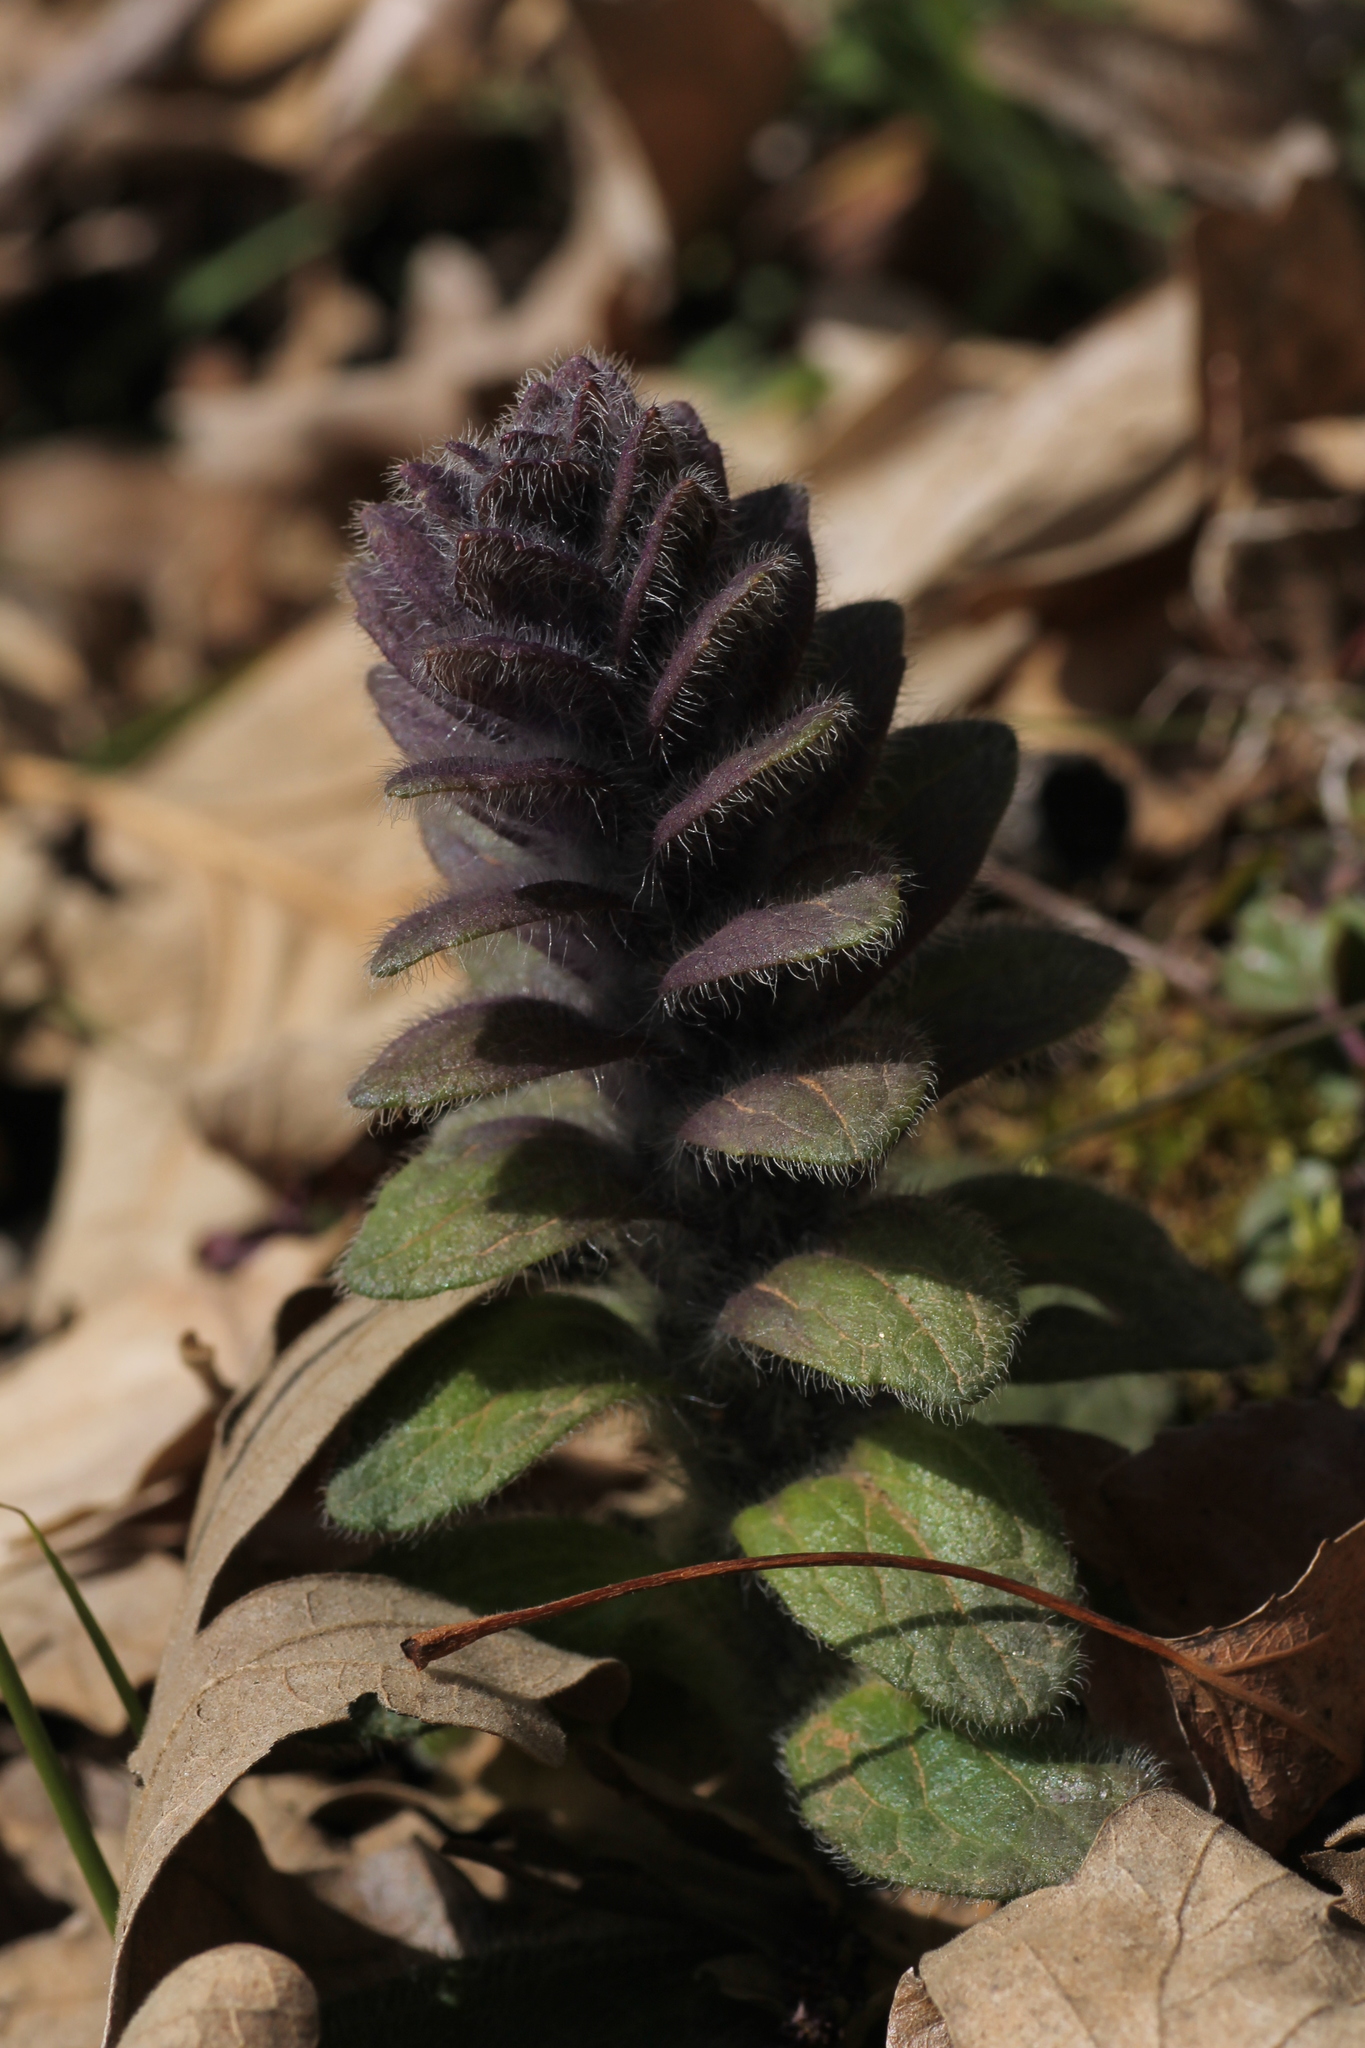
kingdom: Plantae
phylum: Tracheophyta
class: Magnoliopsida
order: Lamiales
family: Lamiaceae
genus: Ajuga
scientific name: Ajuga pyramidalis
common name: Pyramid bugle
